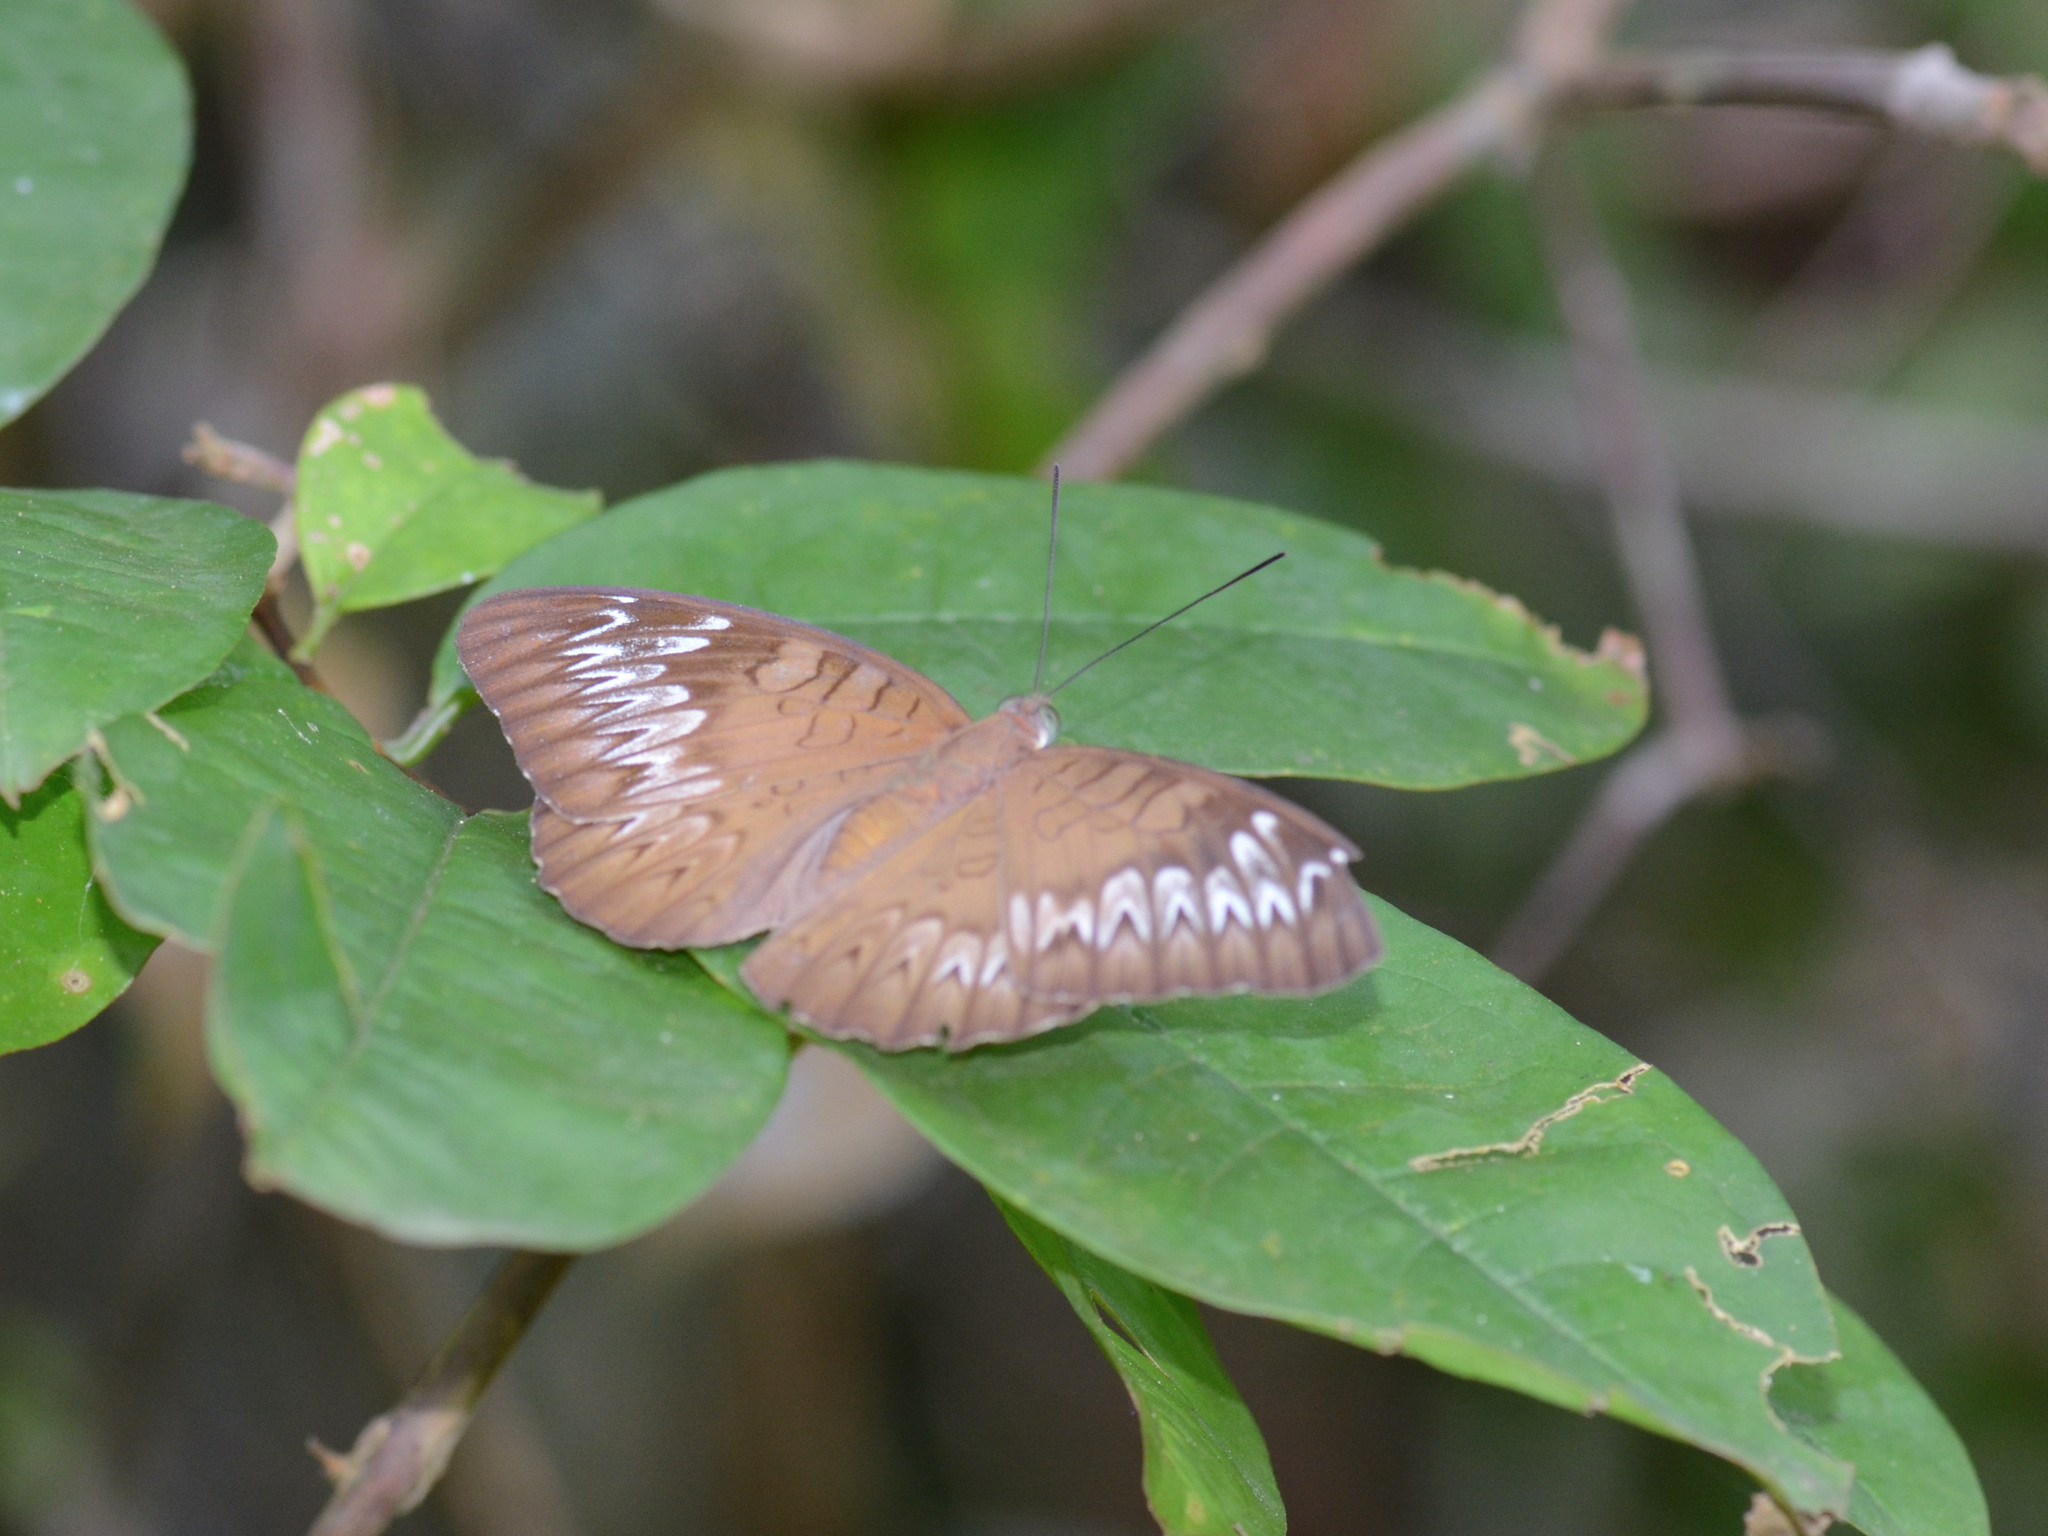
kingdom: Animalia
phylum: Arthropoda
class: Insecta
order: Lepidoptera
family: Nymphalidae
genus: Tanaecia
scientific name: Tanaecia pelea
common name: Malay viscount
